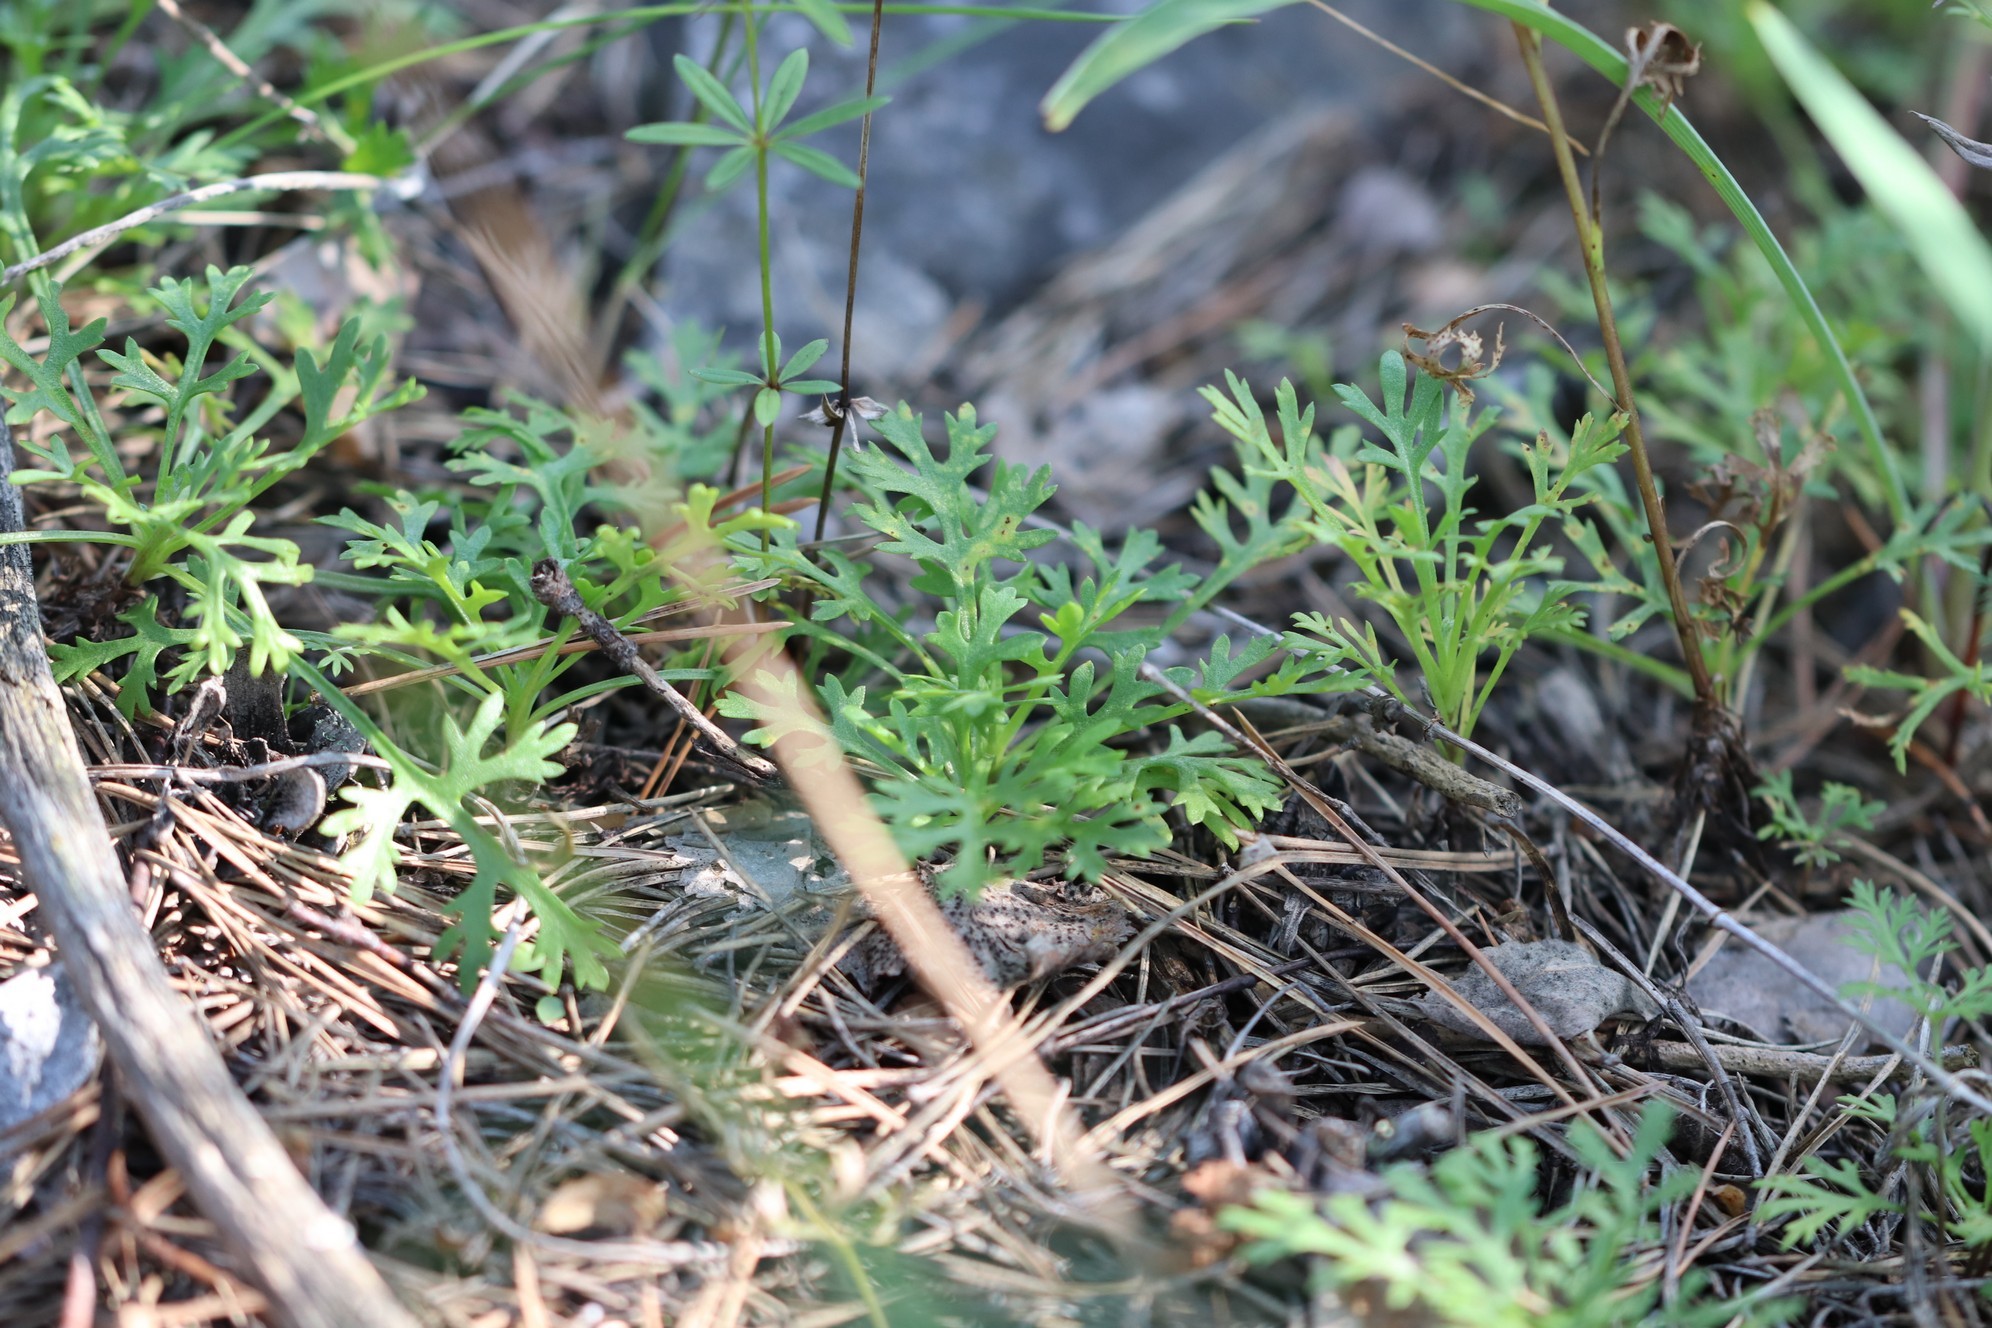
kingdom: Plantae
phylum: Tracheophyta
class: Magnoliopsida
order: Asterales
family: Asteraceae
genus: Chrysanthemum
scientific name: Chrysanthemum zawadzkii
